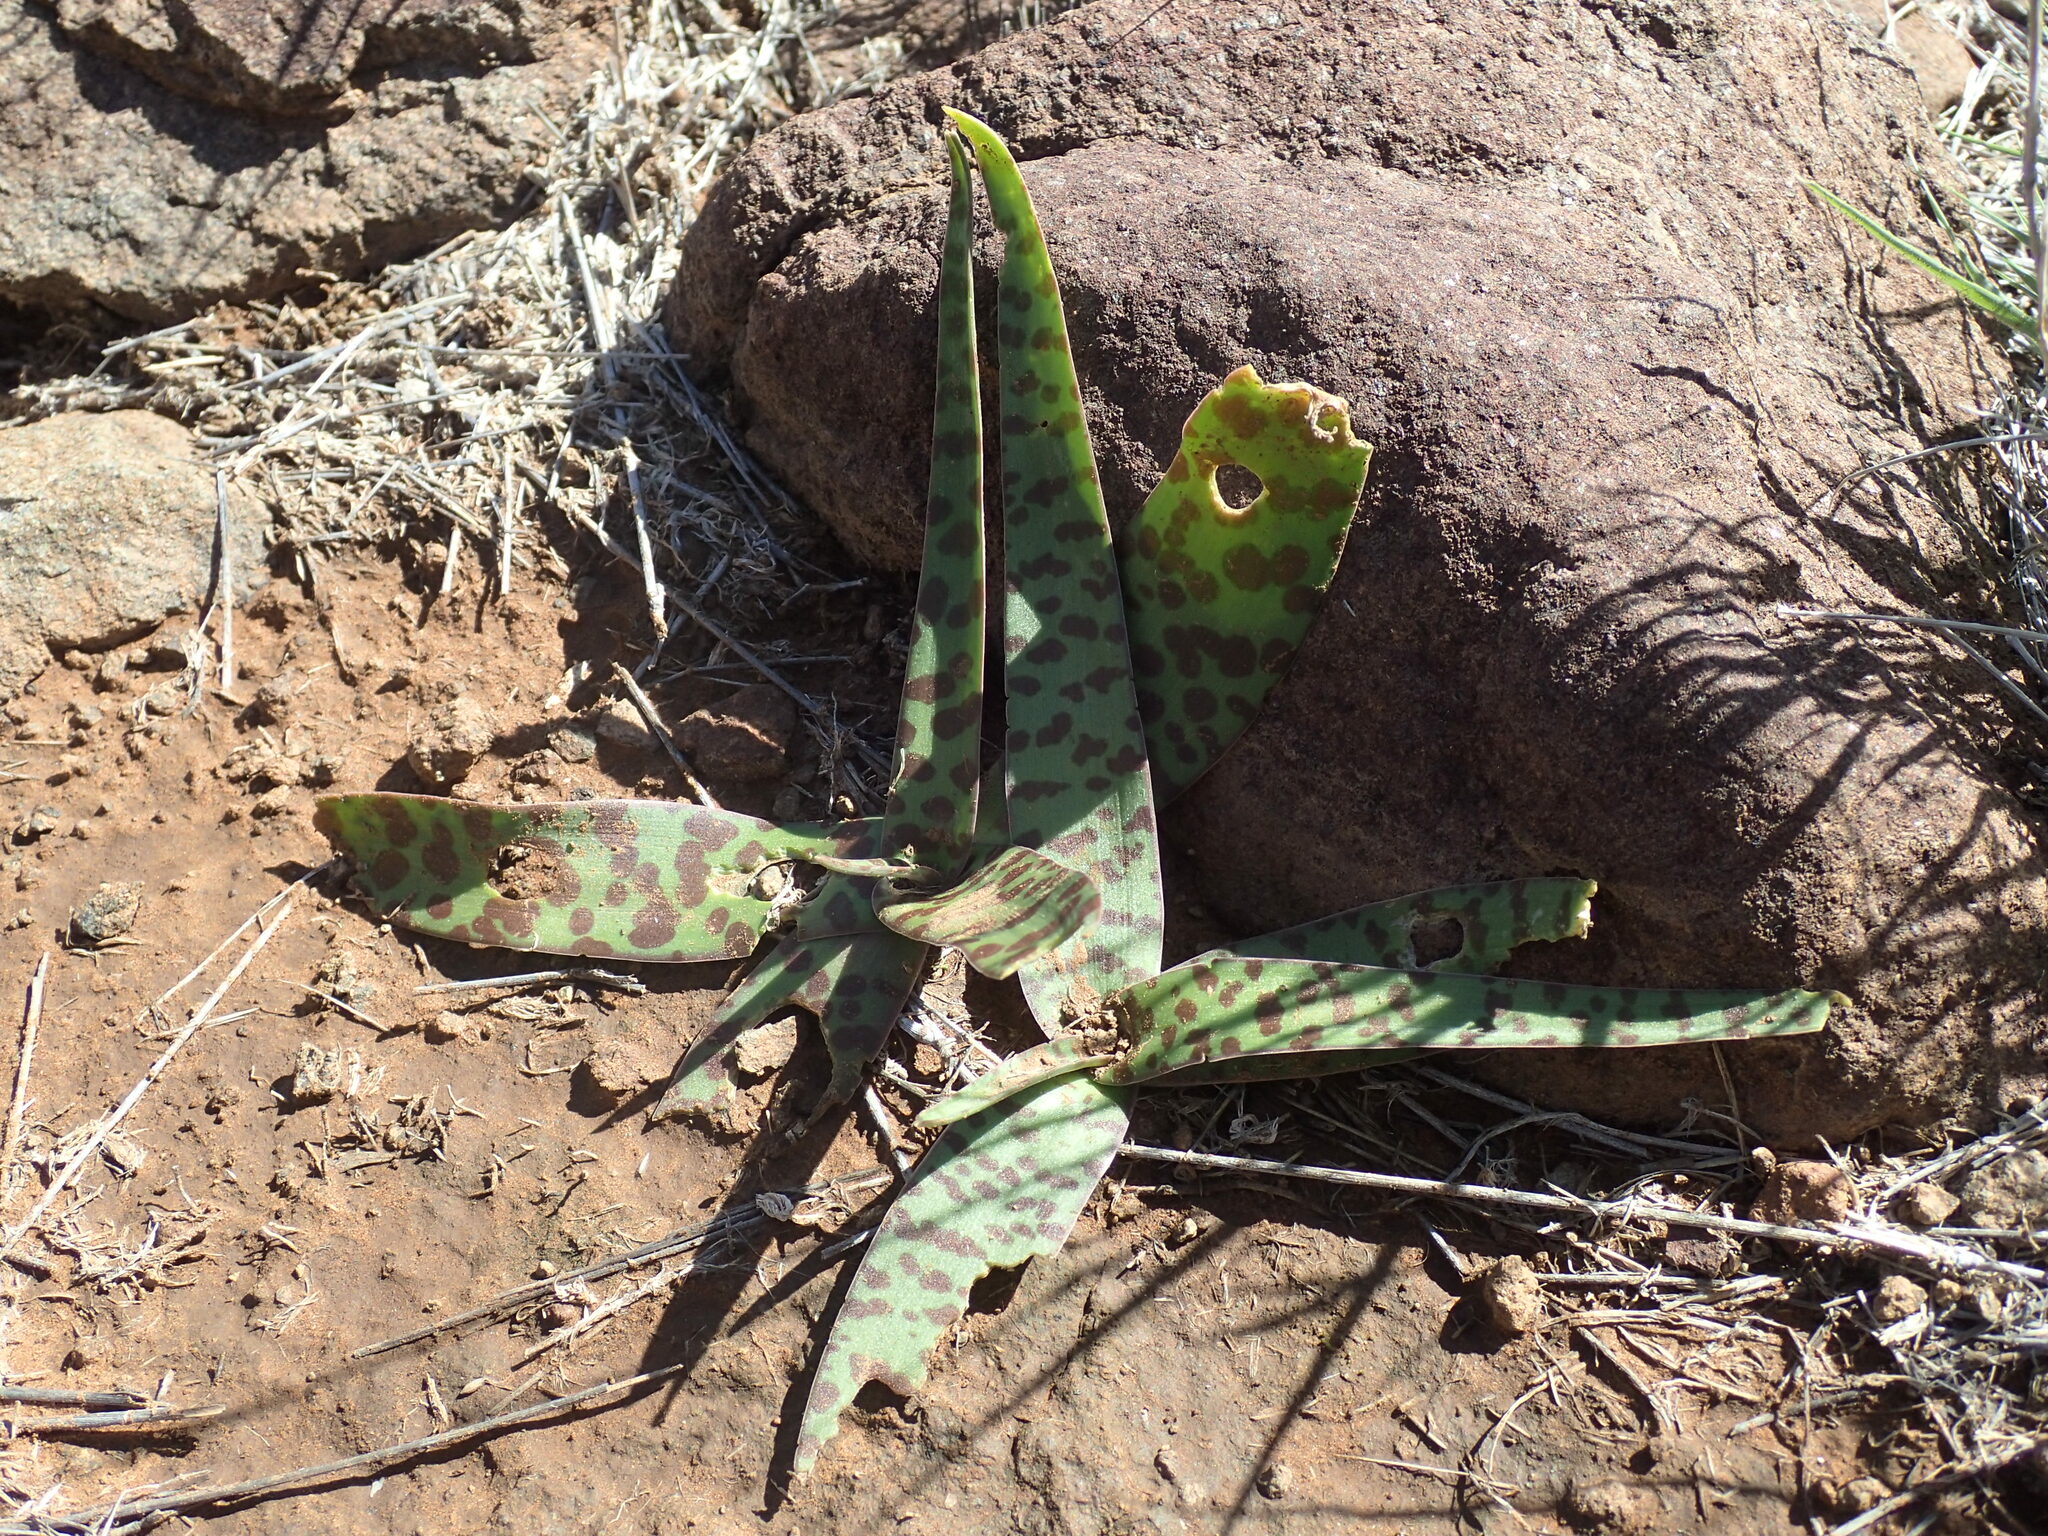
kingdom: Plantae
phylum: Tracheophyta
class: Liliopsida
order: Asparagales
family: Asparagaceae
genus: Ledebouria
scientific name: Ledebouria apertiflora
